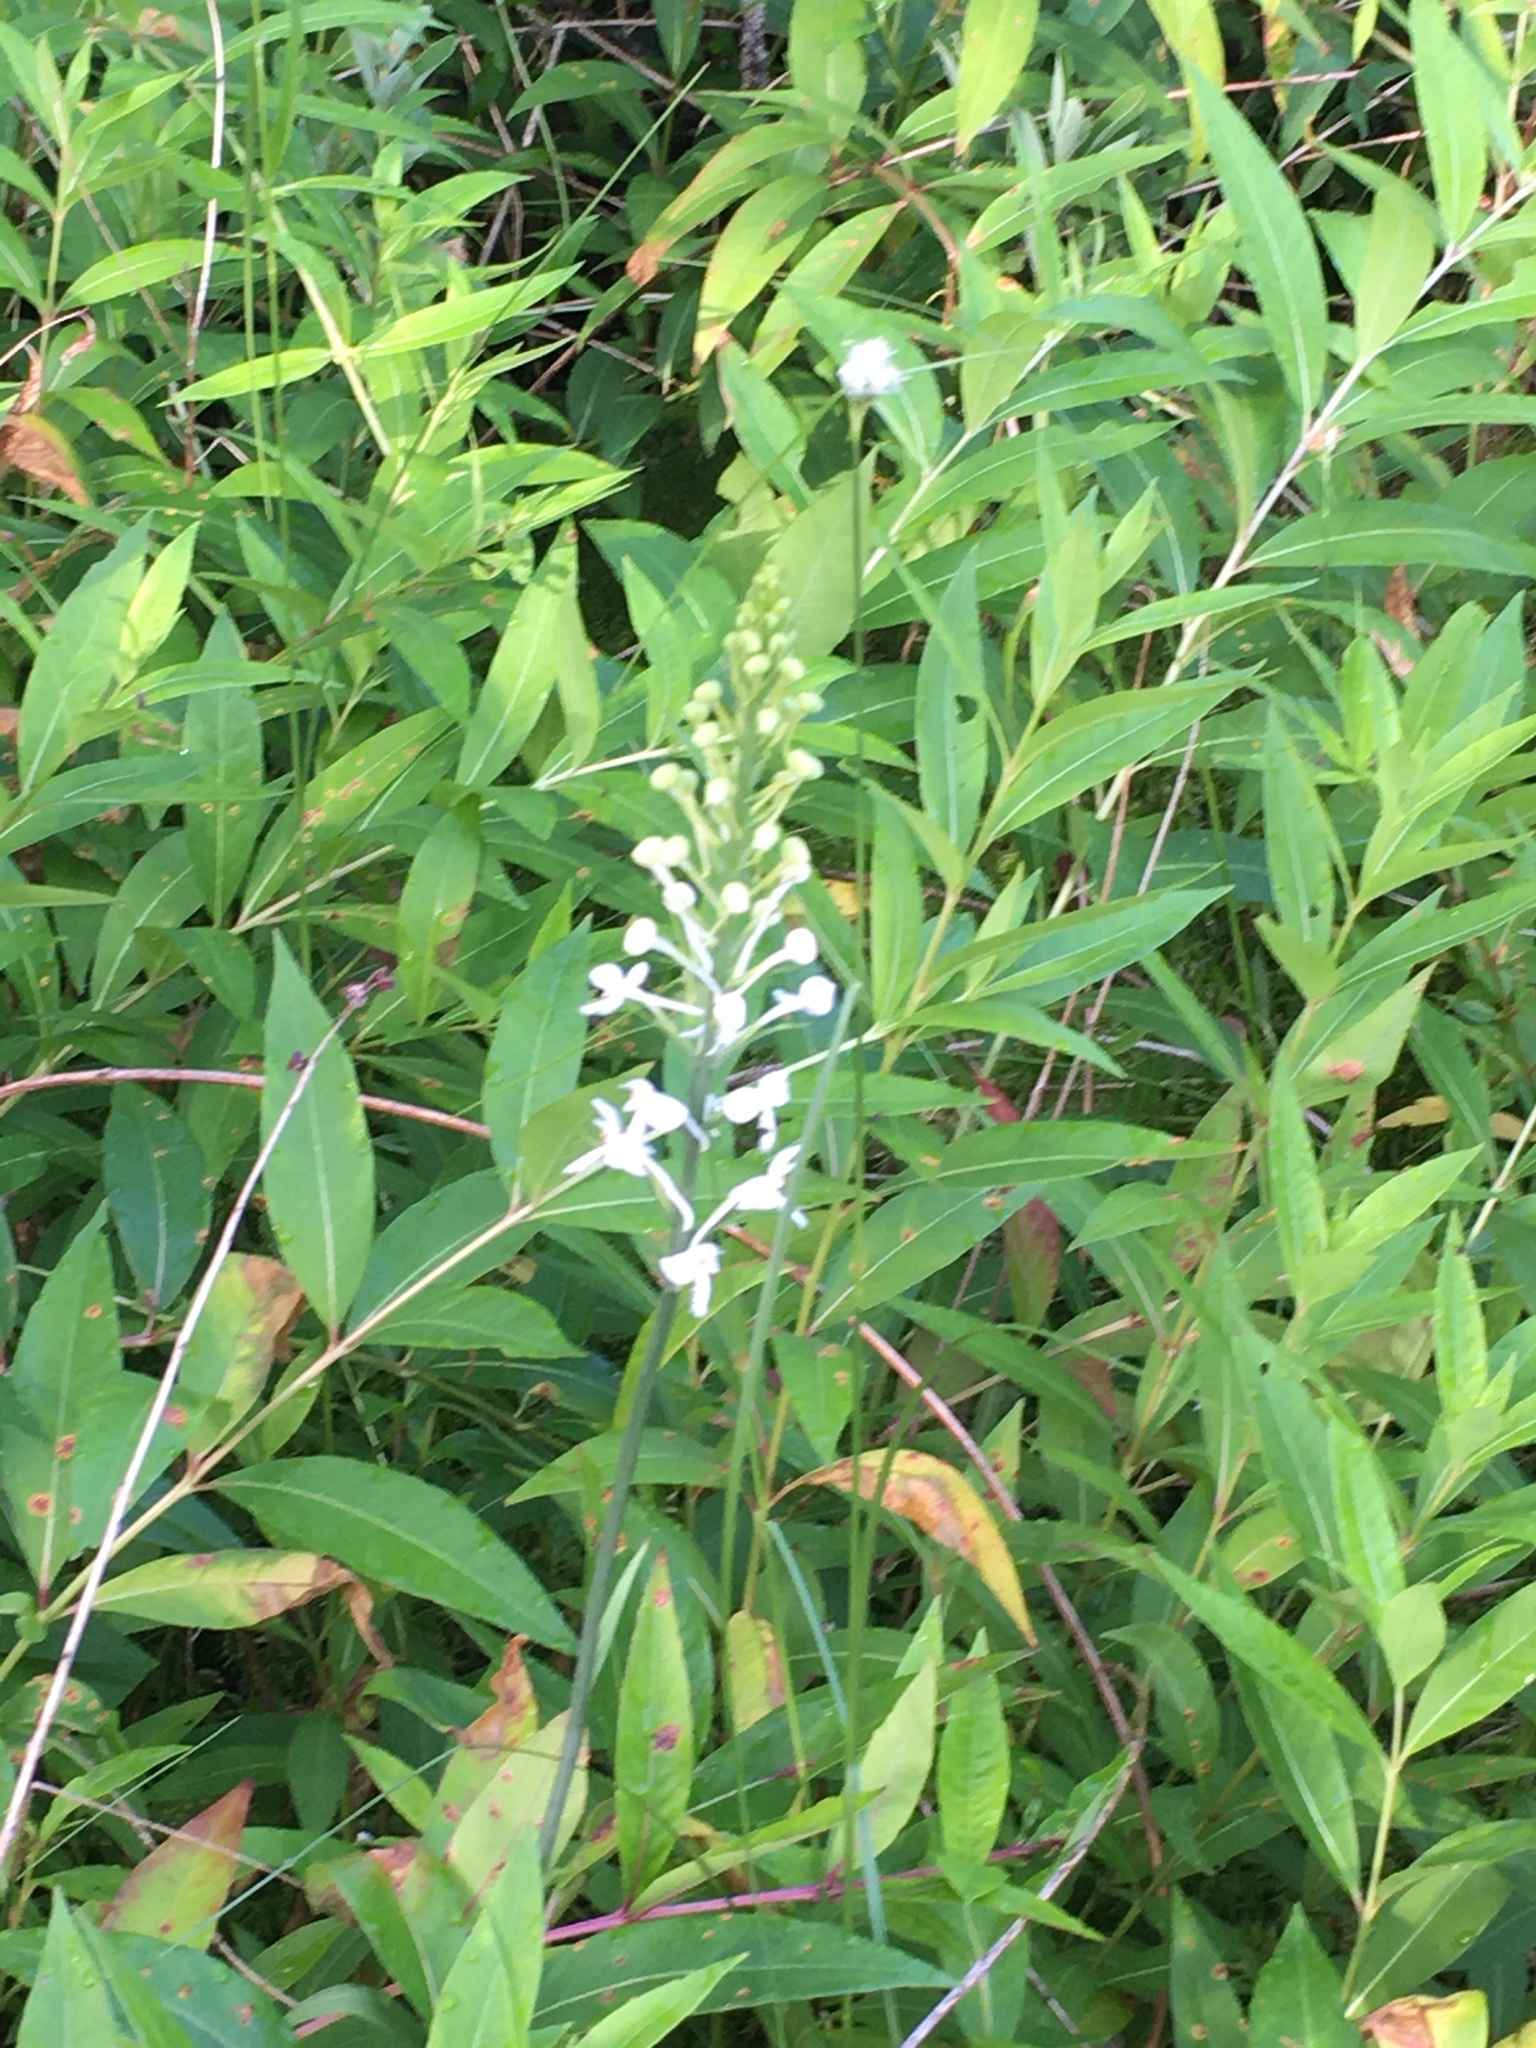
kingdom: Plantae
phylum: Tracheophyta
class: Liliopsida
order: Asparagales
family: Orchidaceae
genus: Platanthera
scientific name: Platanthera blephariglottis
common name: White fringed orchid
